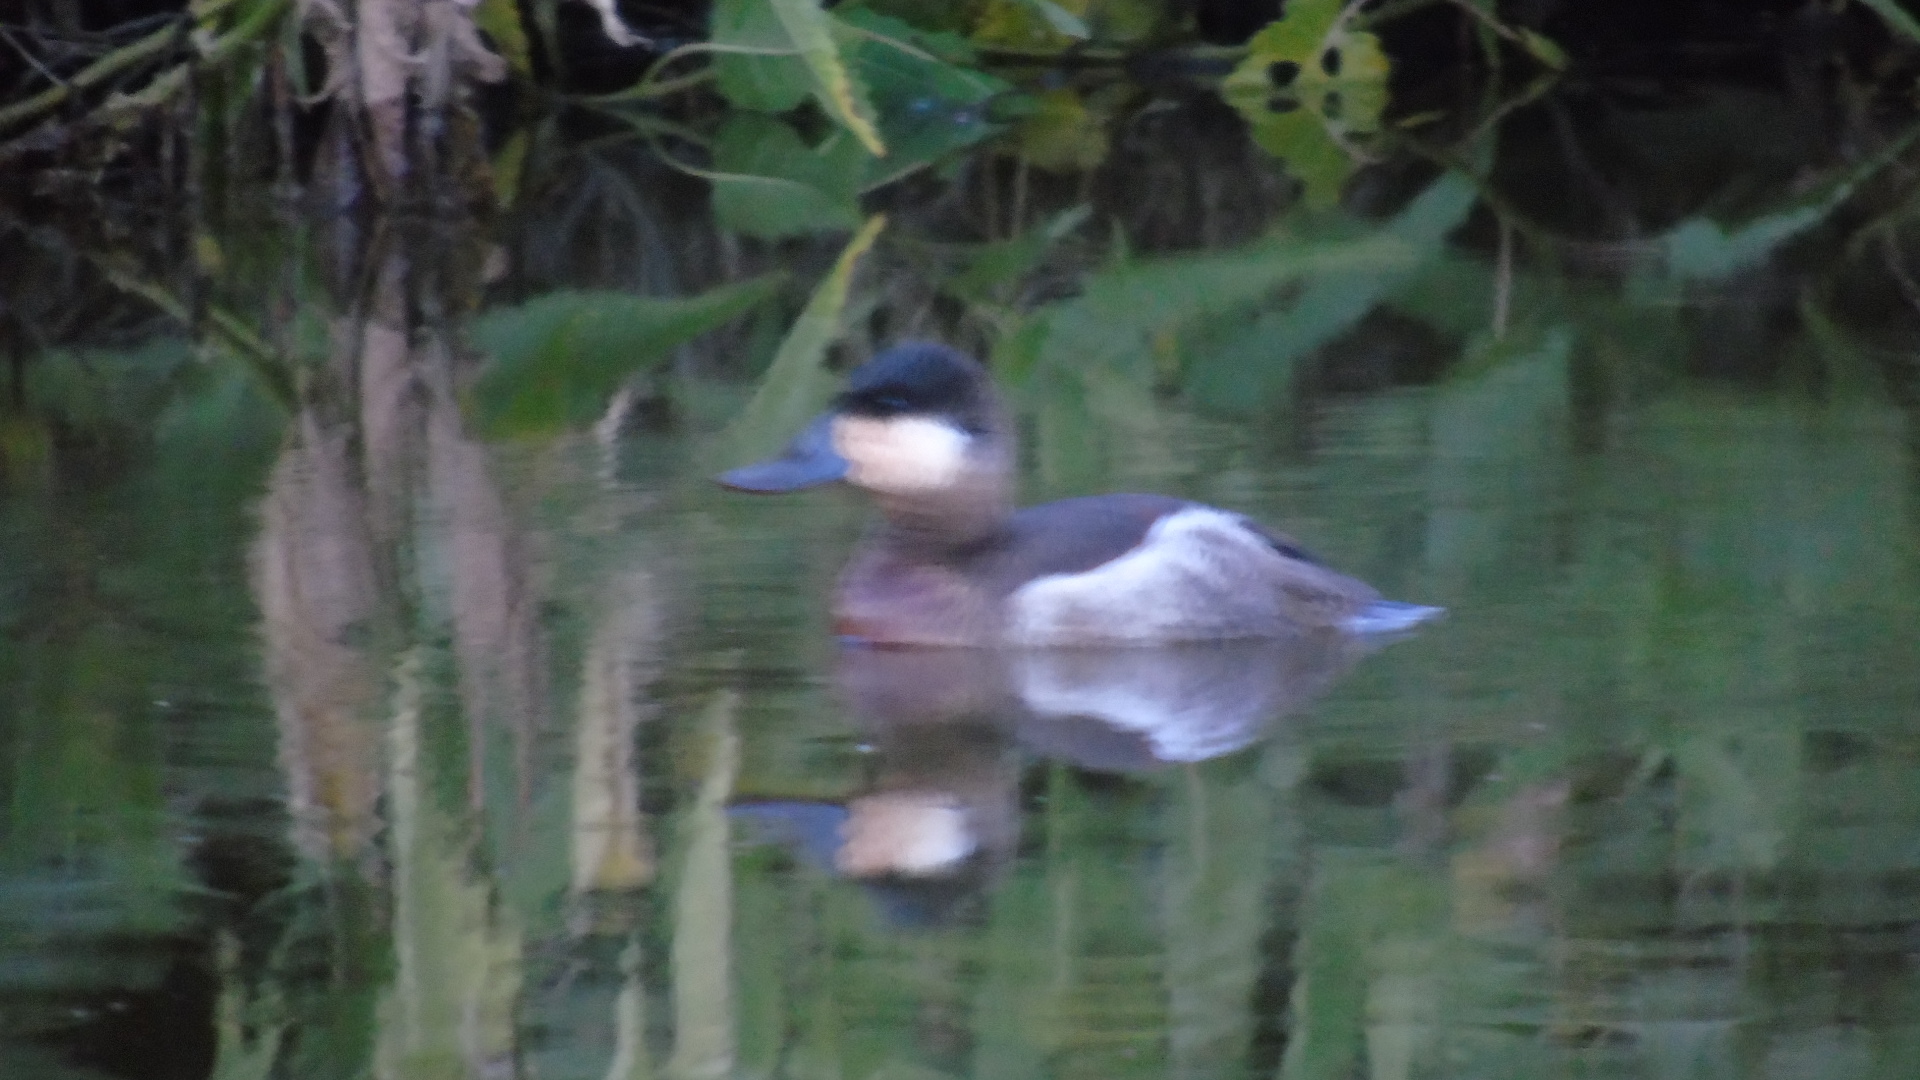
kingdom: Animalia
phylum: Chordata
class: Aves
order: Anseriformes
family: Anatidae
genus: Oxyura
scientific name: Oxyura jamaicensis
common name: Ruddy duck
